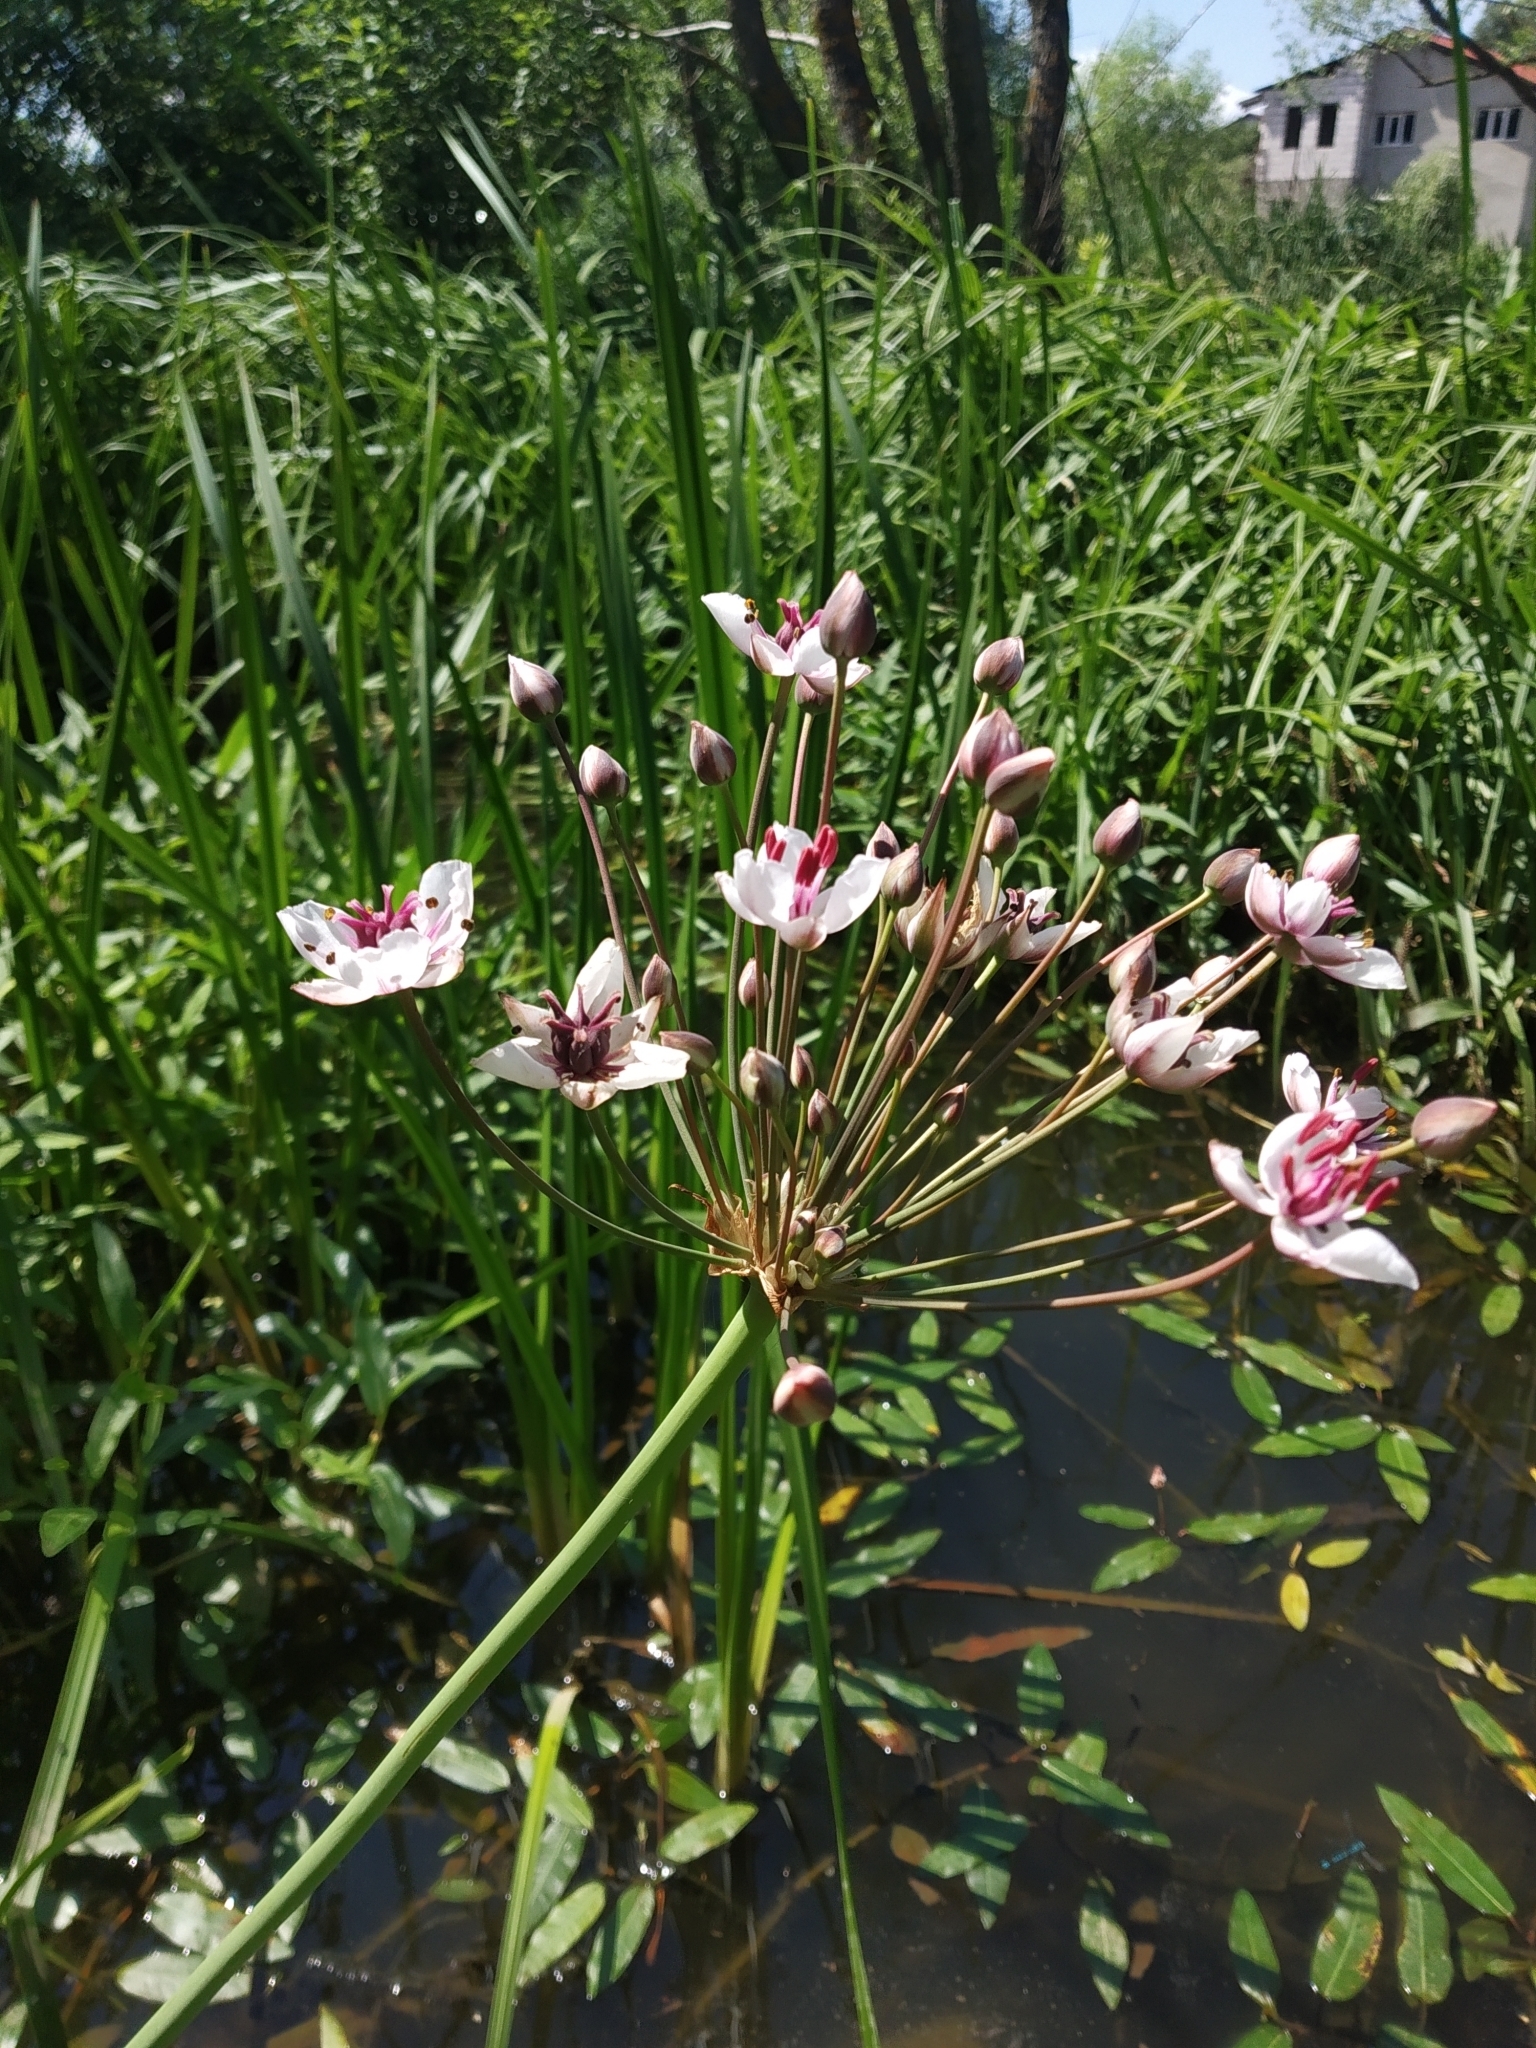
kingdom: Plantae
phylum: Tracheophyta
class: Liliopsida
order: Alismatales
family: Butomaceae
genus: Butomus
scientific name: Butomus umbellatus
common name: Flowering-rush
